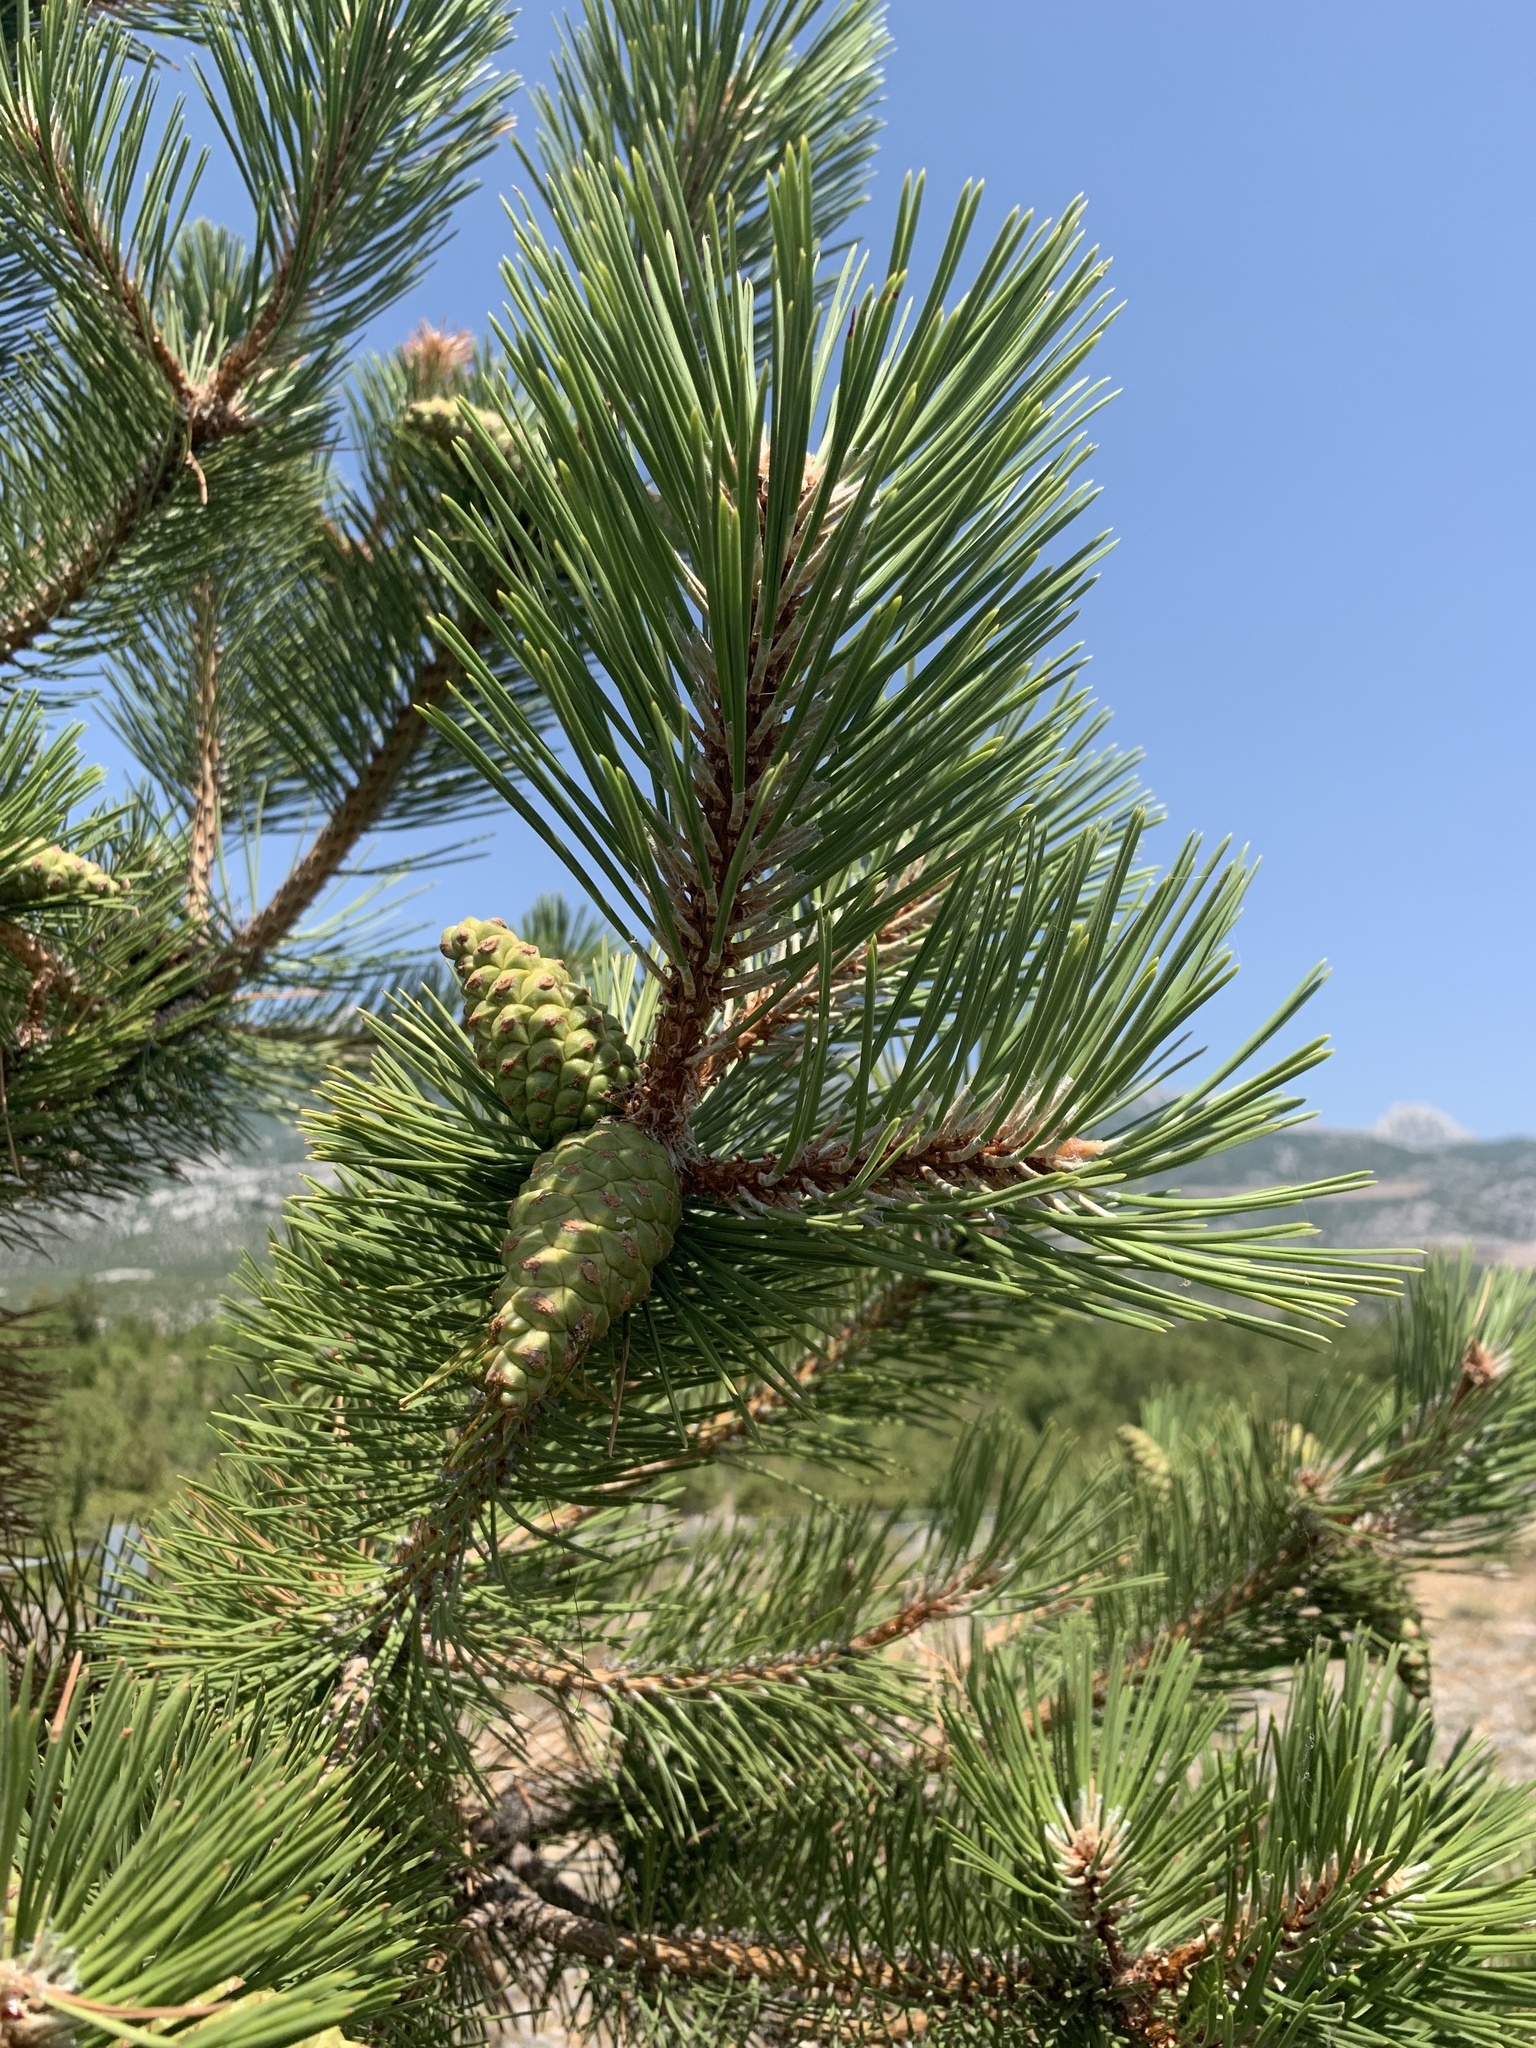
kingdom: Plantae
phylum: Tracheophyta
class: Pinopsida
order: Pinales
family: Pinaceae
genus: Pinus
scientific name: Pinus nigra
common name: Austrian pine
